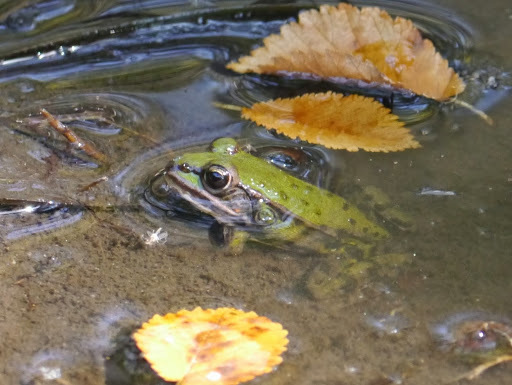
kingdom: Animalia
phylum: Chordata
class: Amphibia
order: Anura
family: Ranidae
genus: Pelophylax
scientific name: Pelophylax
